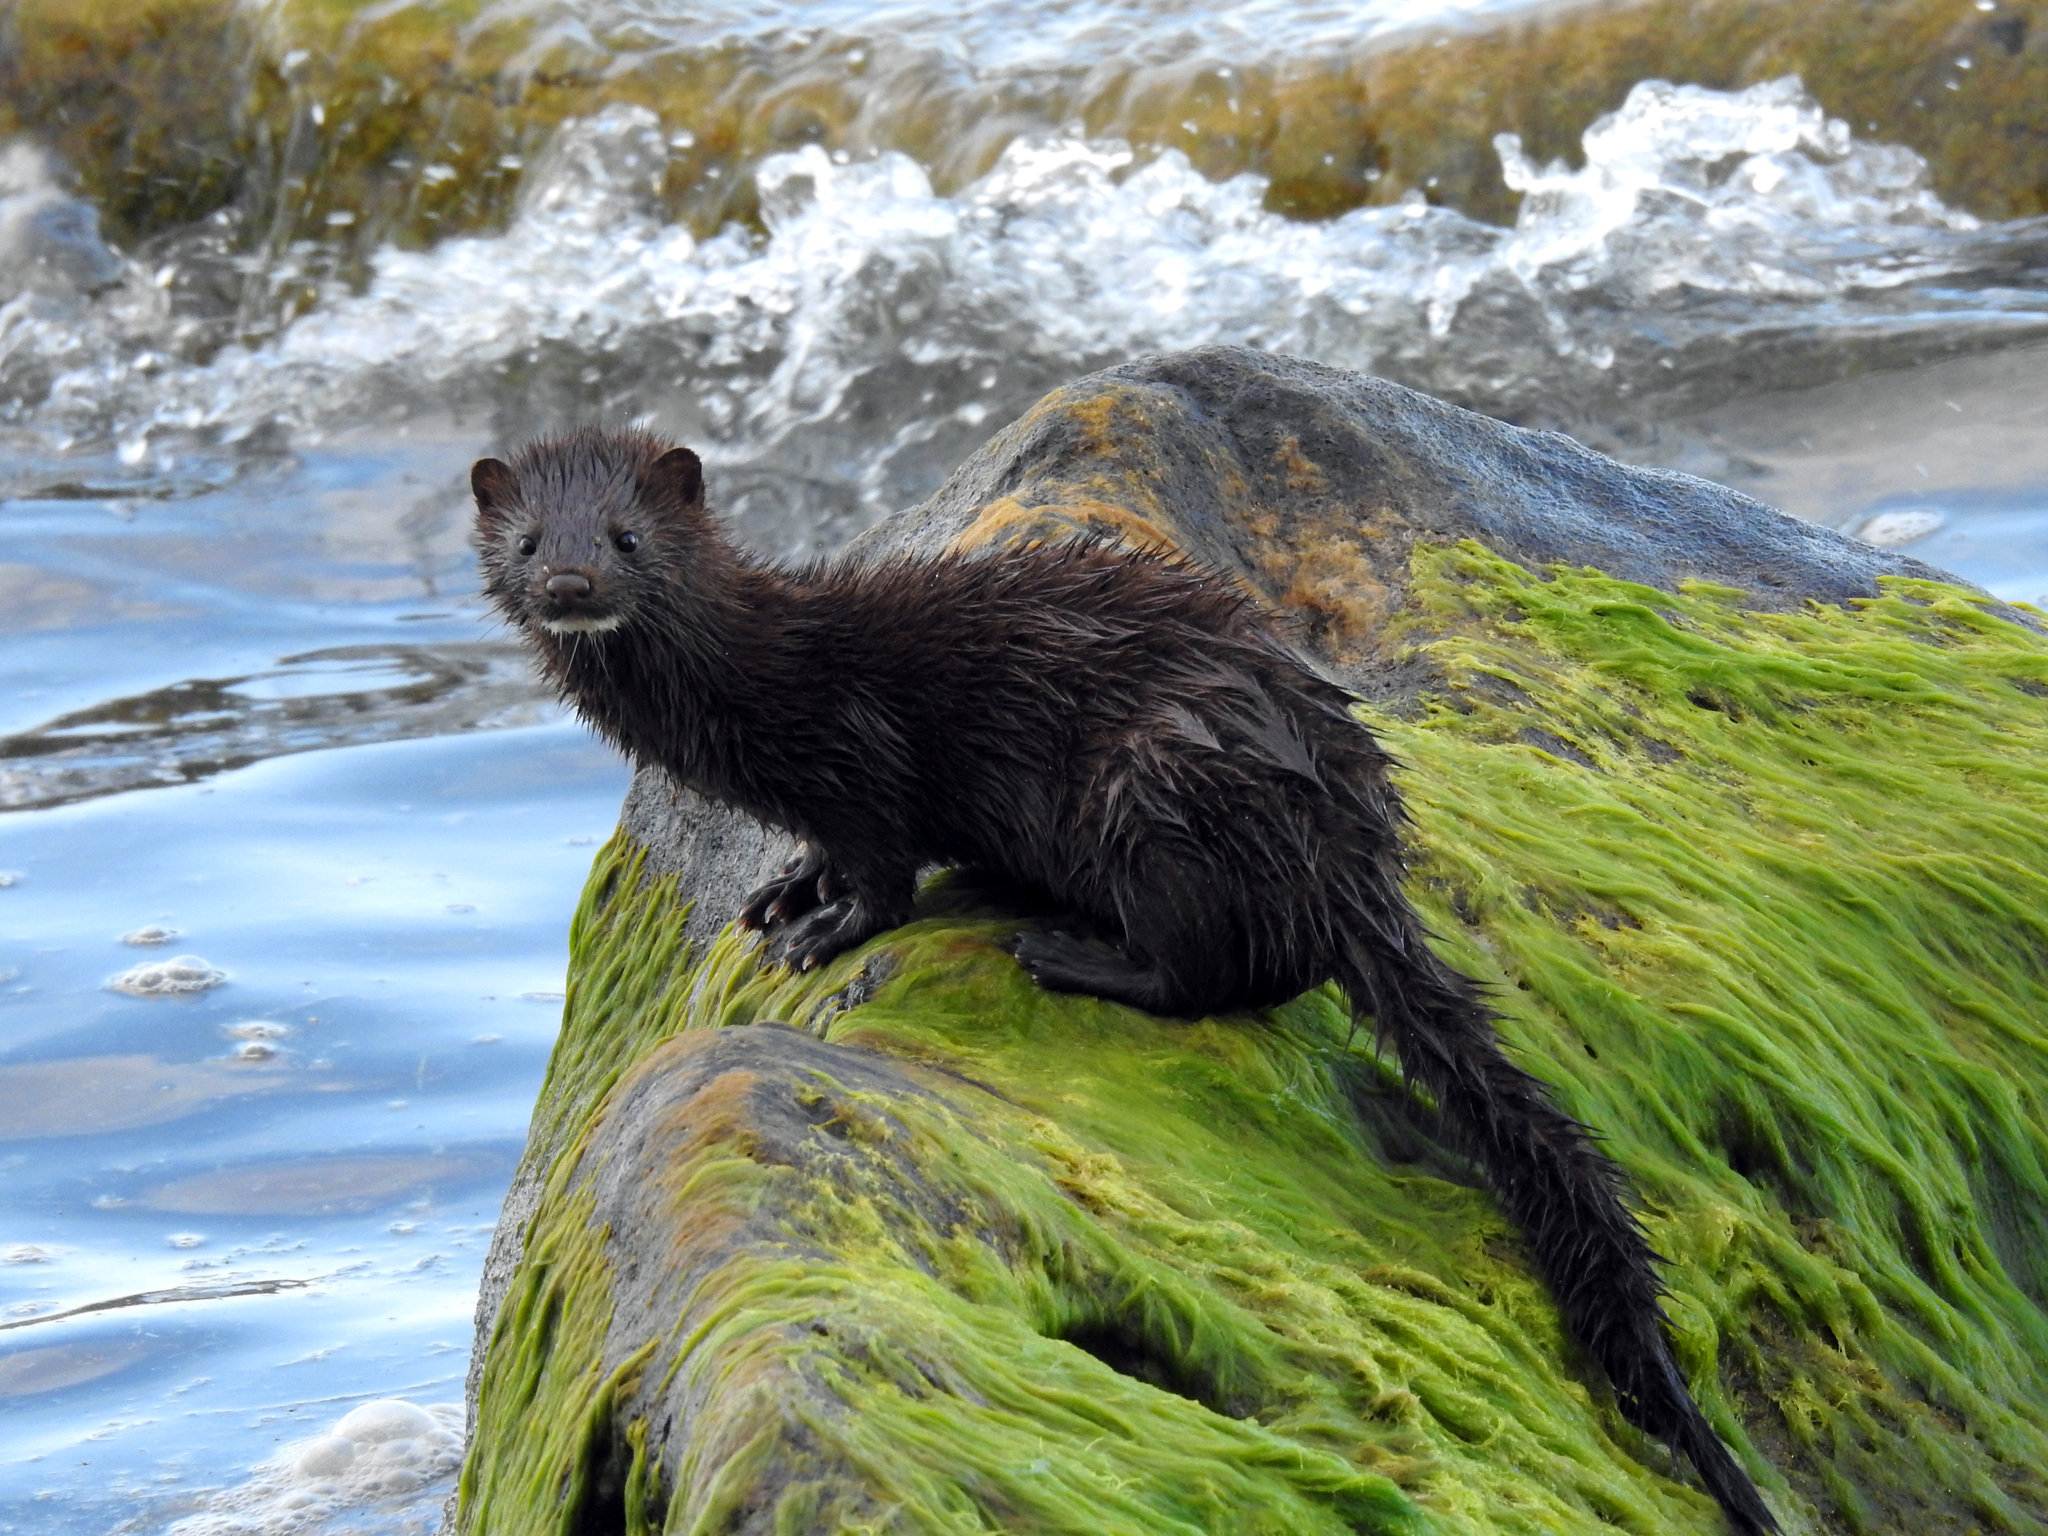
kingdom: Animalia
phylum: Chordata
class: Mammalia
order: Carnivora
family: Mustelidae
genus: Mustela
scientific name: Mustela
